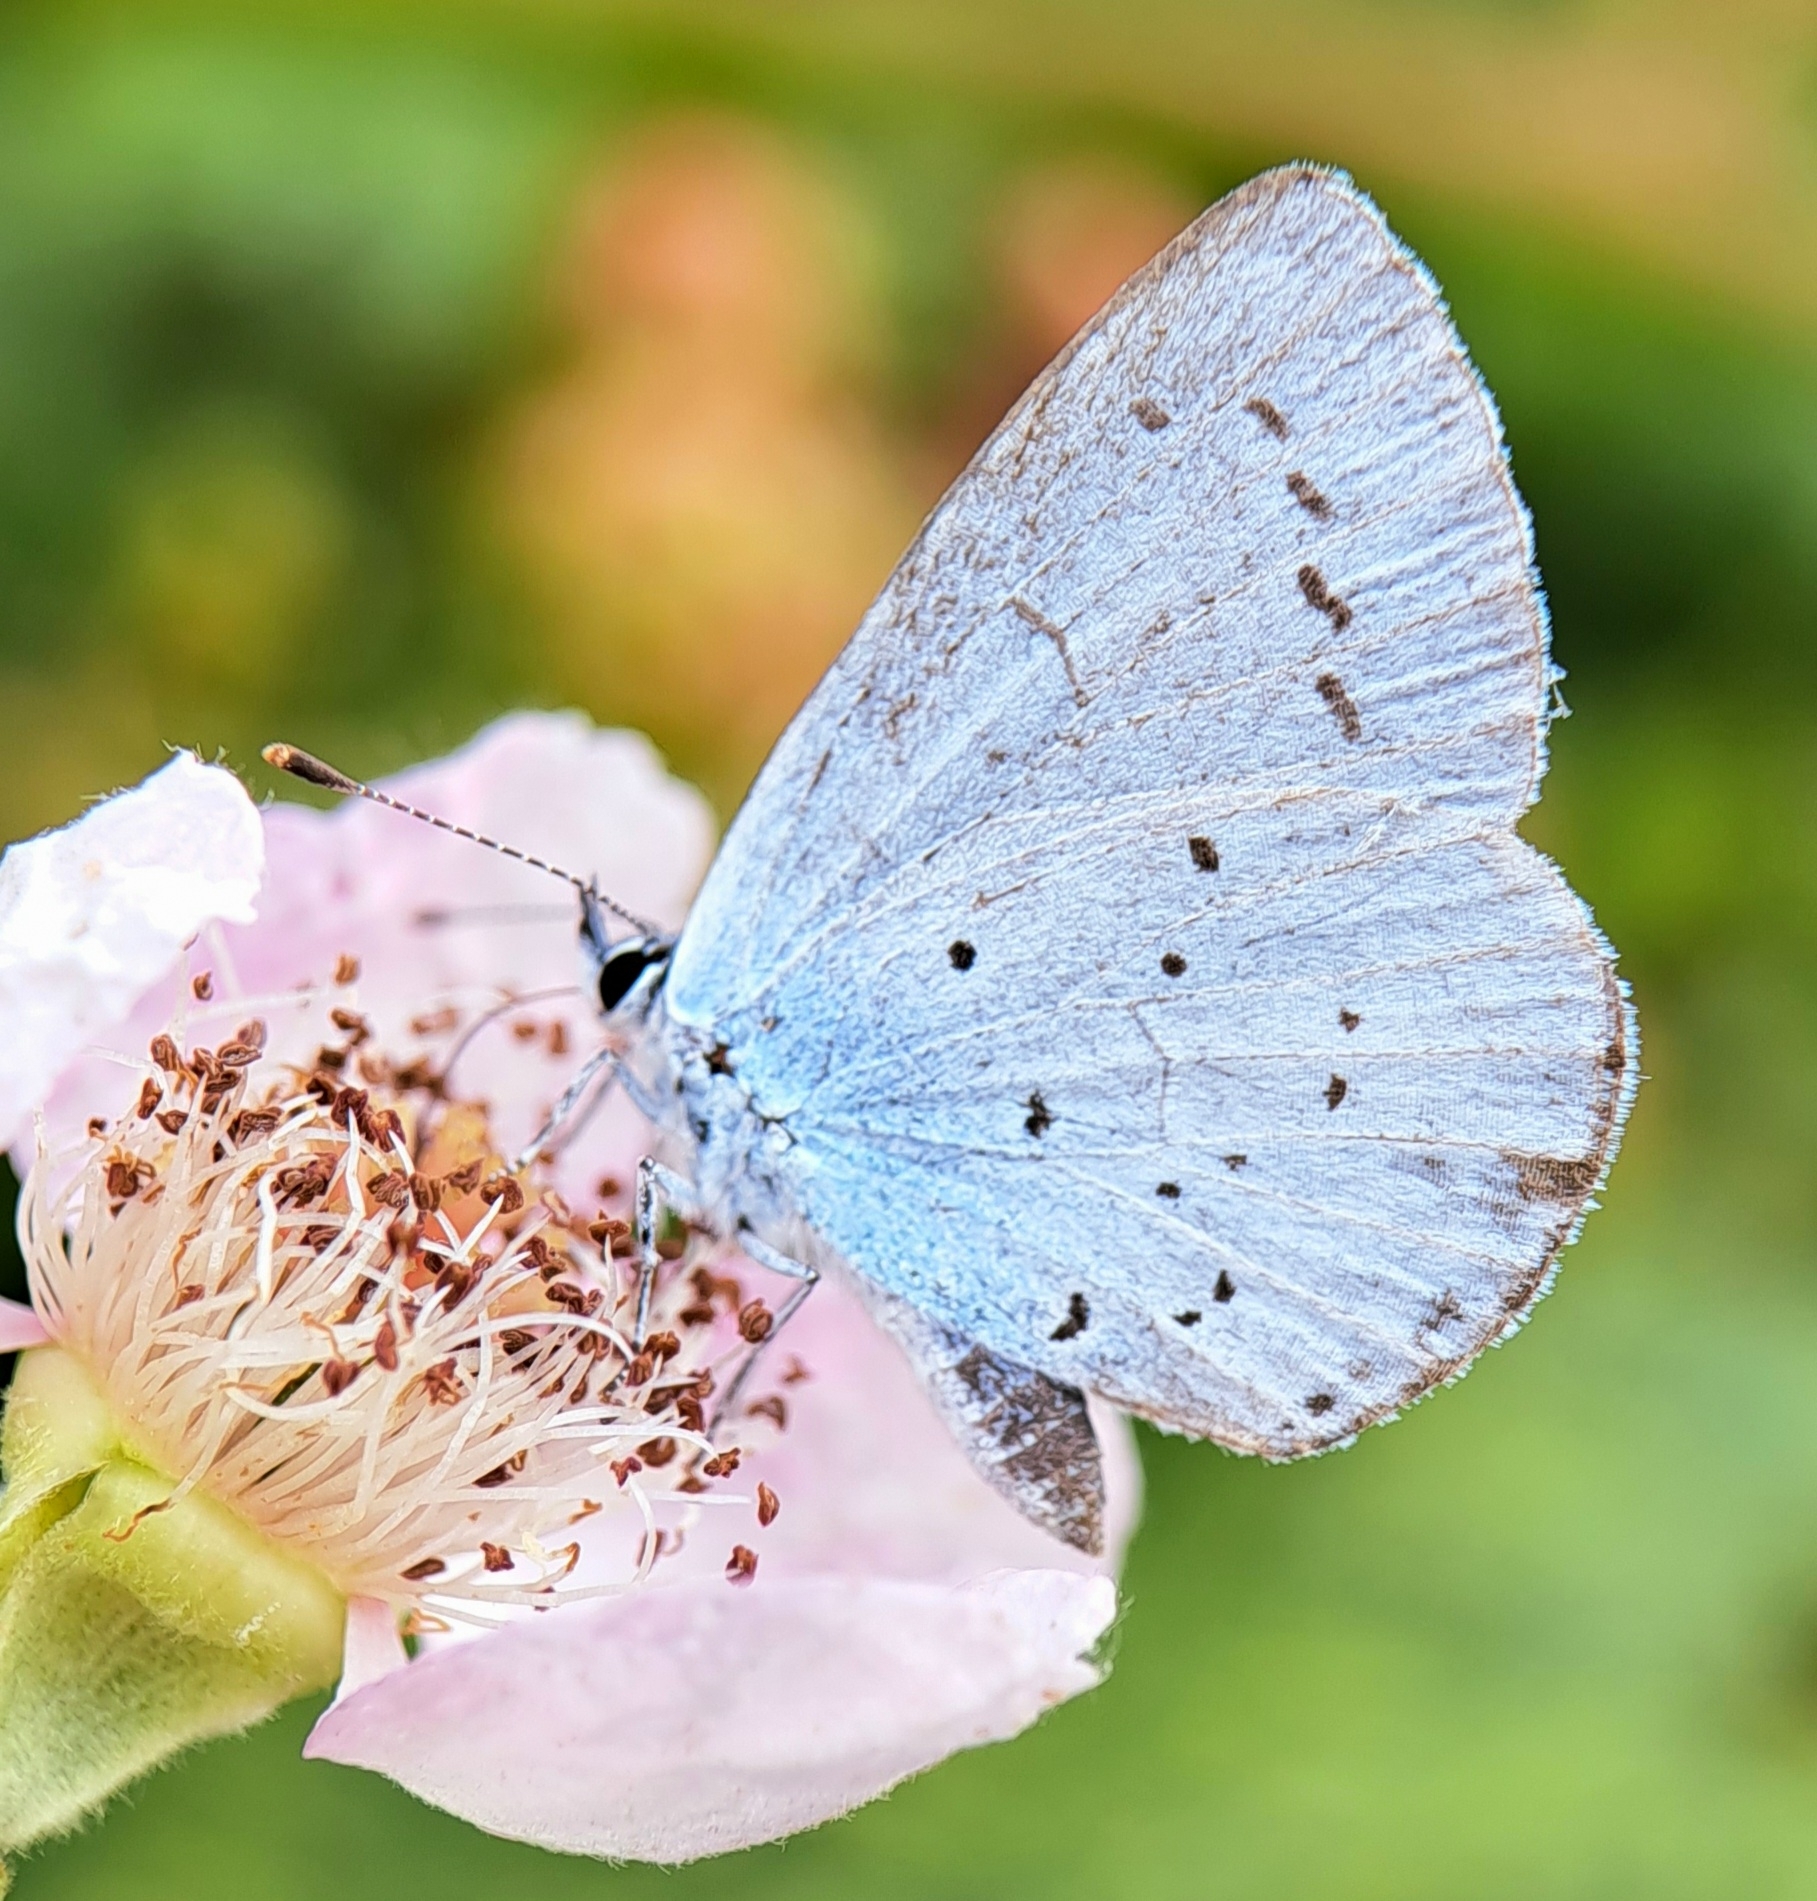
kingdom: Animalia
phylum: Arthropoda
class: Insecta
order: Lepidoptera
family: Lycaenidae
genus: Celastrina
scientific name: Celastrina argiolus
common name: Holly blue
